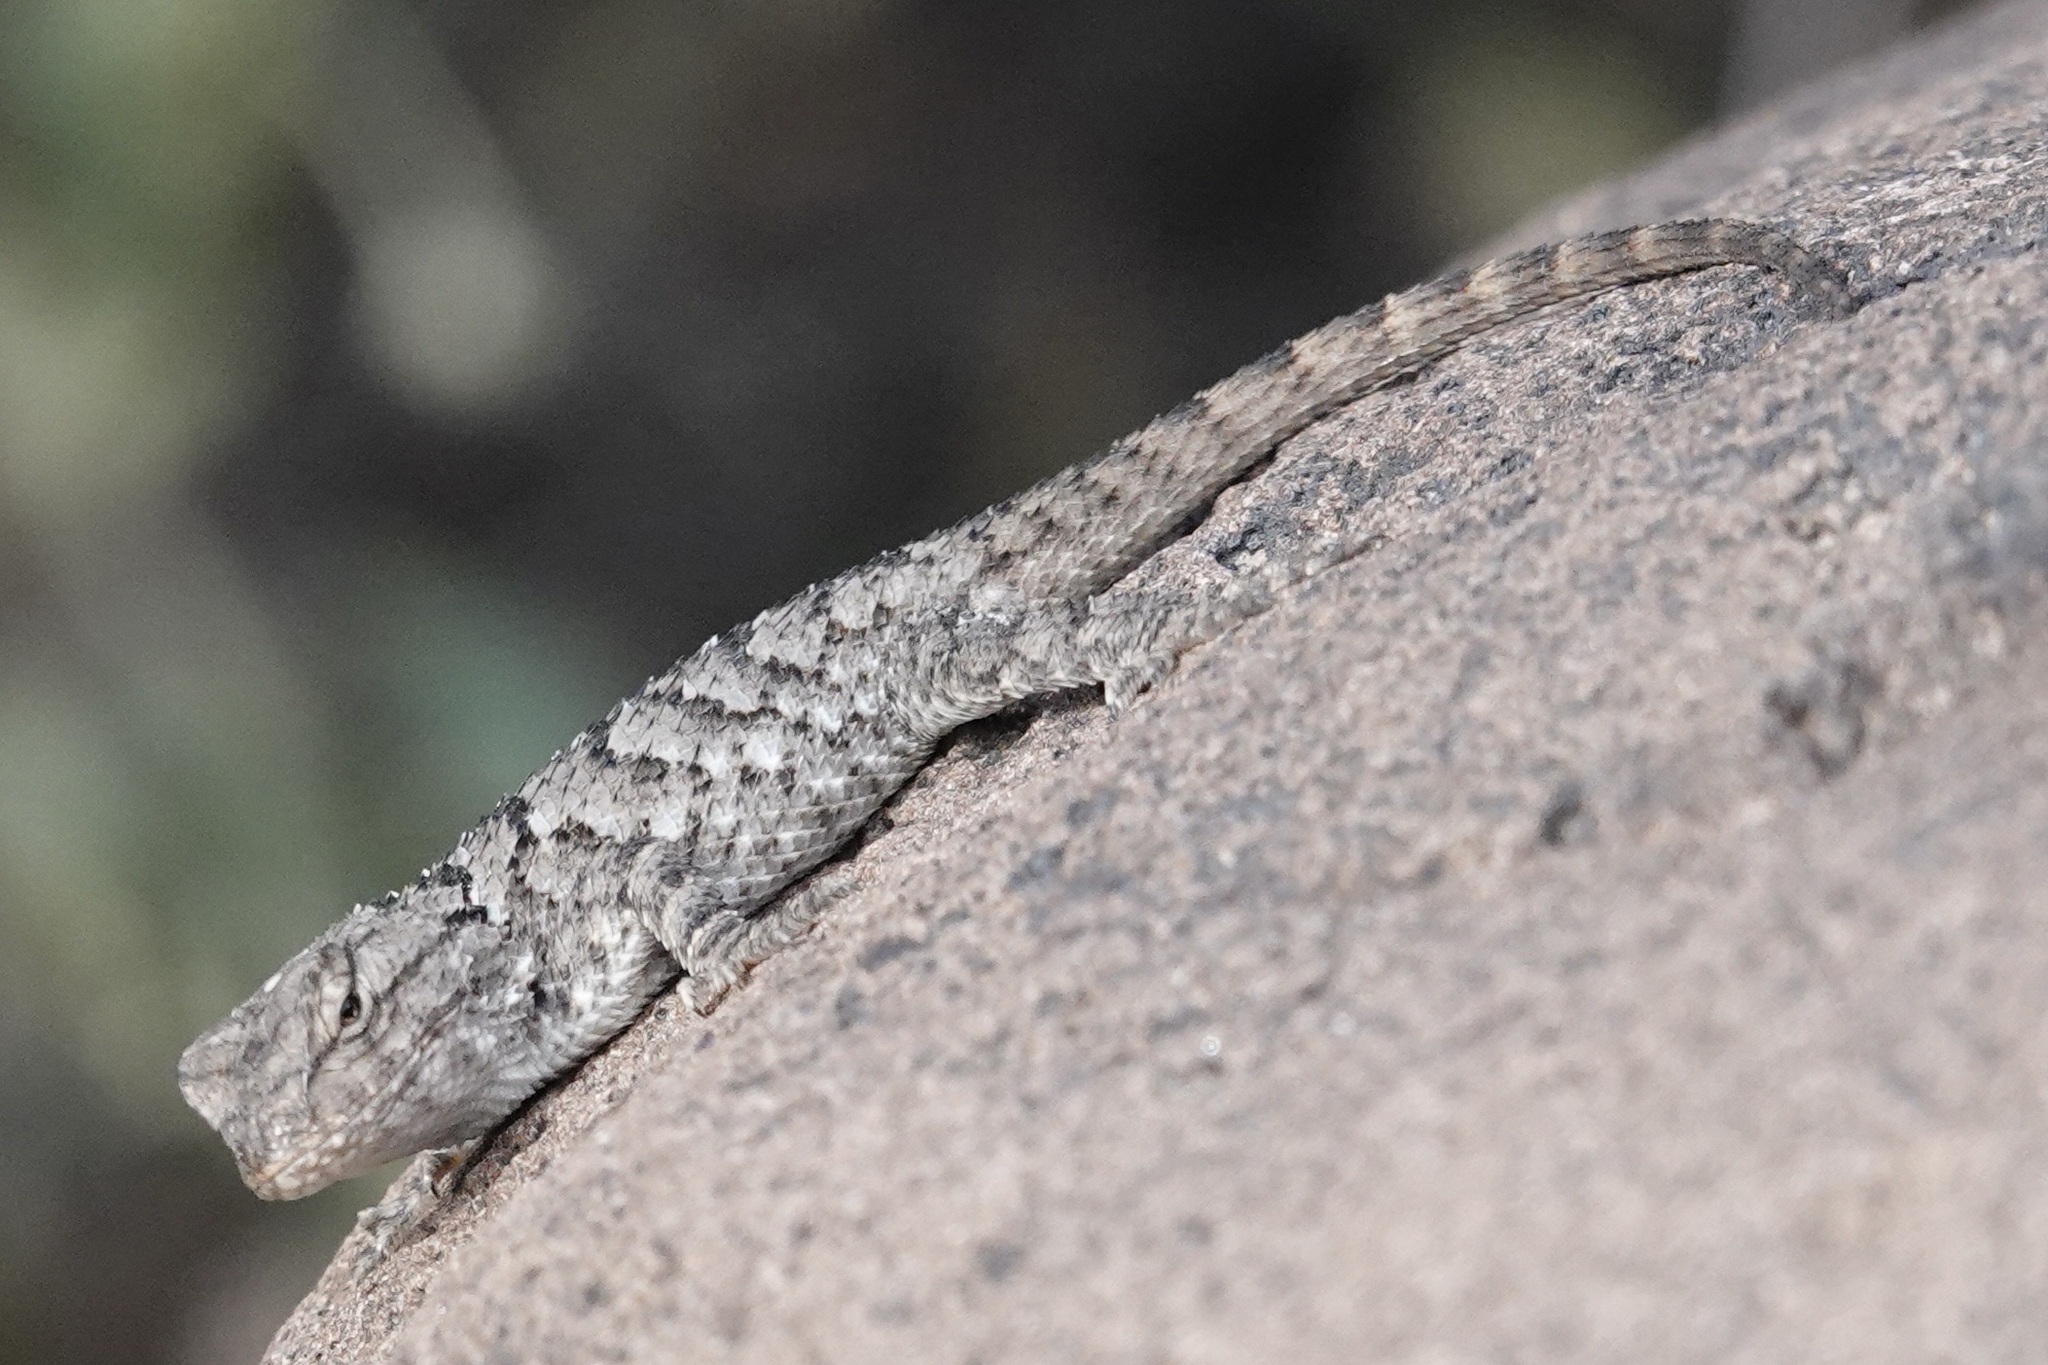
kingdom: Animalia
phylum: Chordata
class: Squamata
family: Phrynosomatidae
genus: Sceloporus
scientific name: Sceloporus clarkii
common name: Clark's spiny lizard
